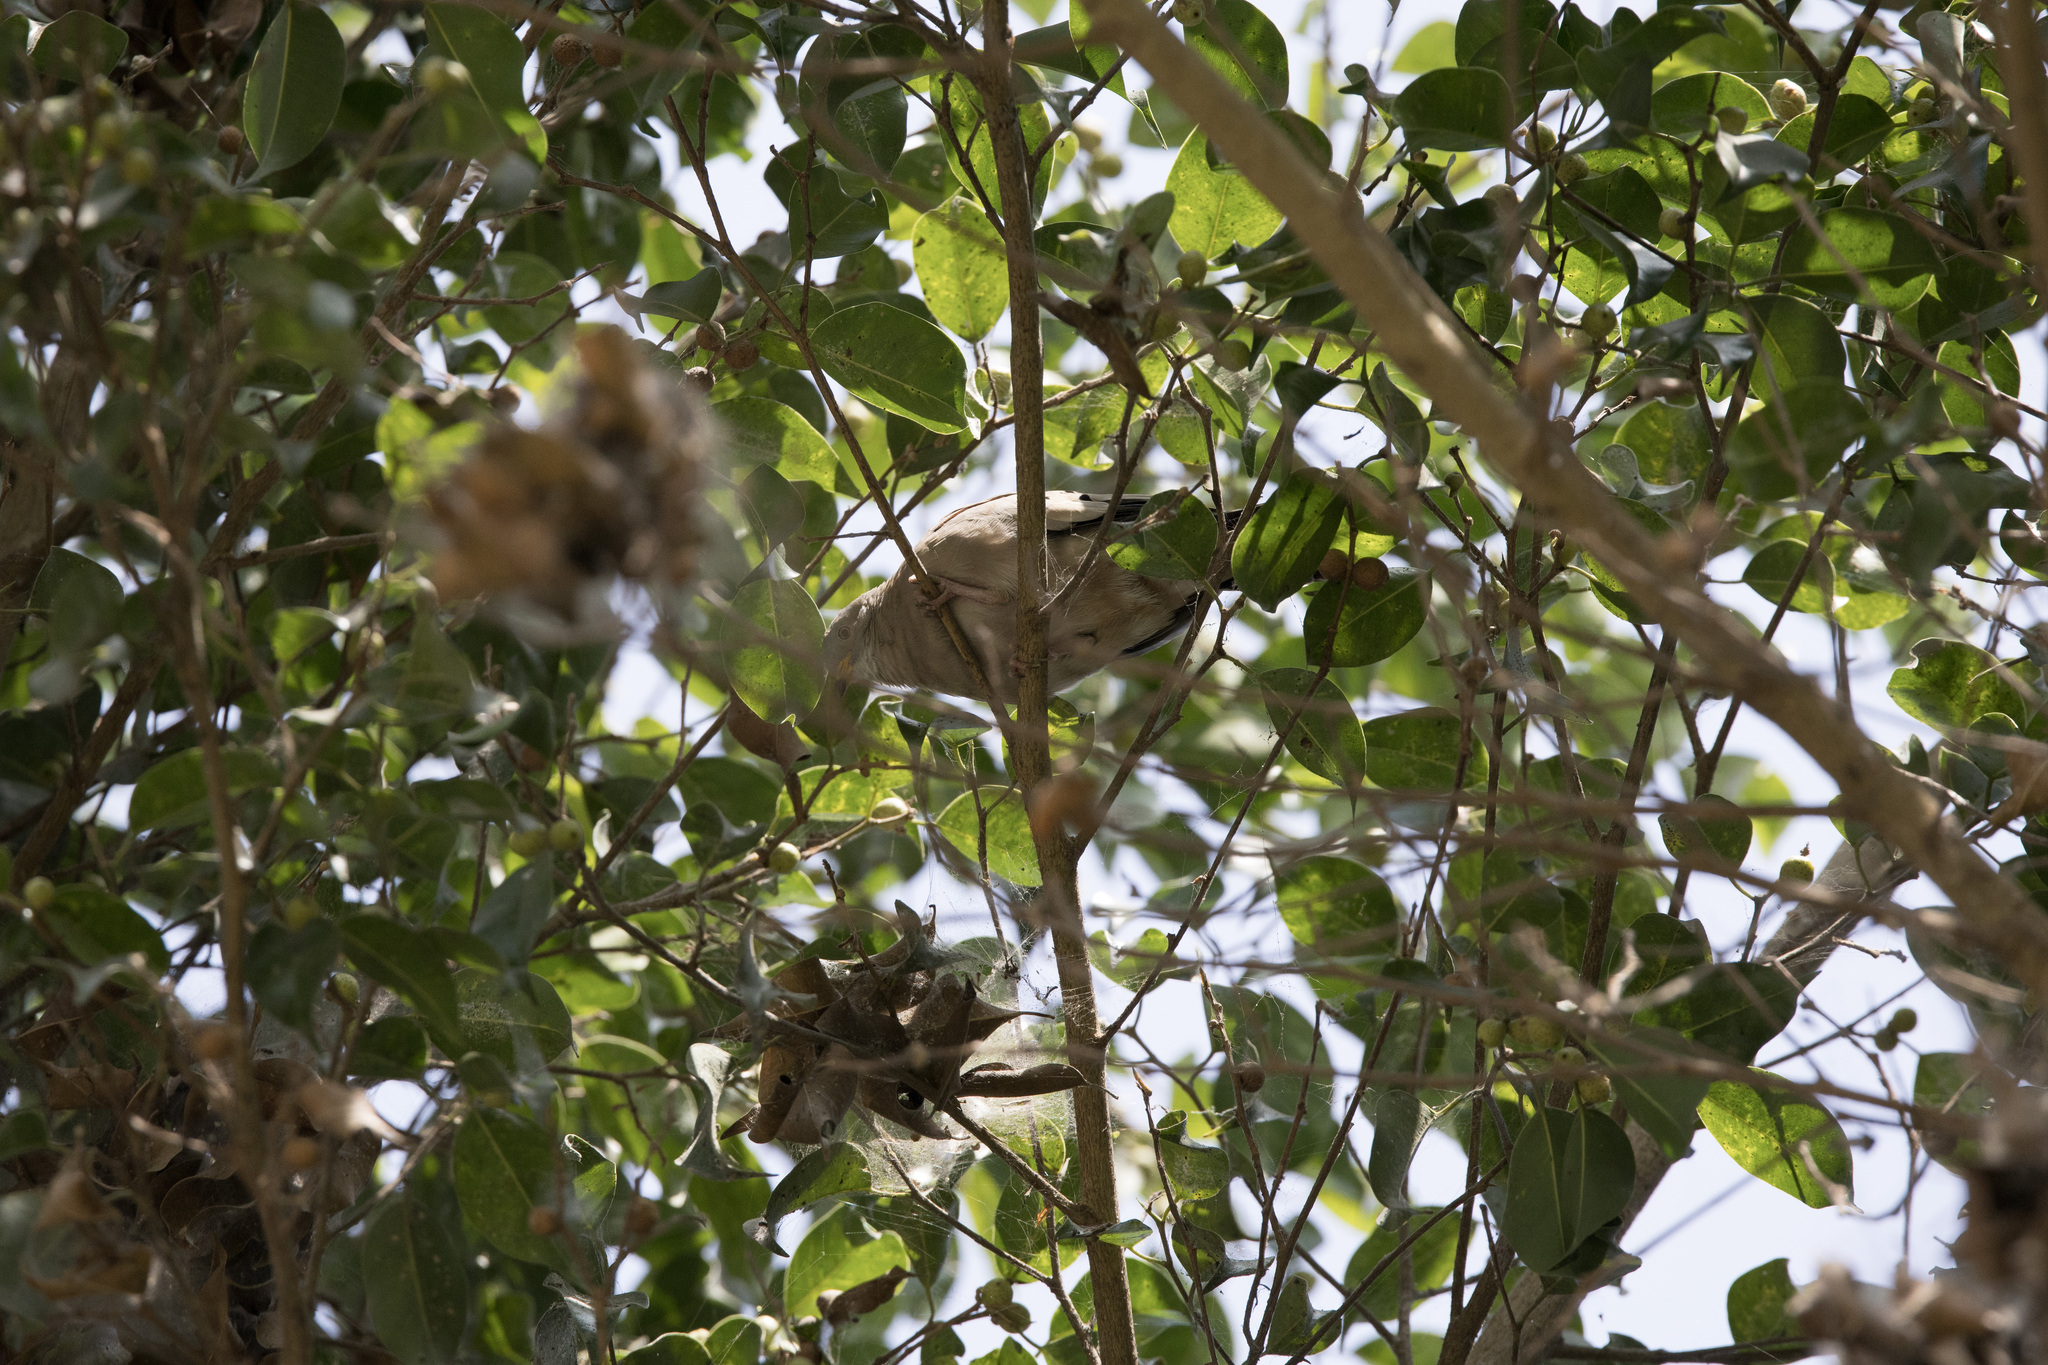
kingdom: Animalia
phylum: Chordata
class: Aves
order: Columbiformes
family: Columbidae
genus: Columbina
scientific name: Columbina cruziana
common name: Croaking ground dove
